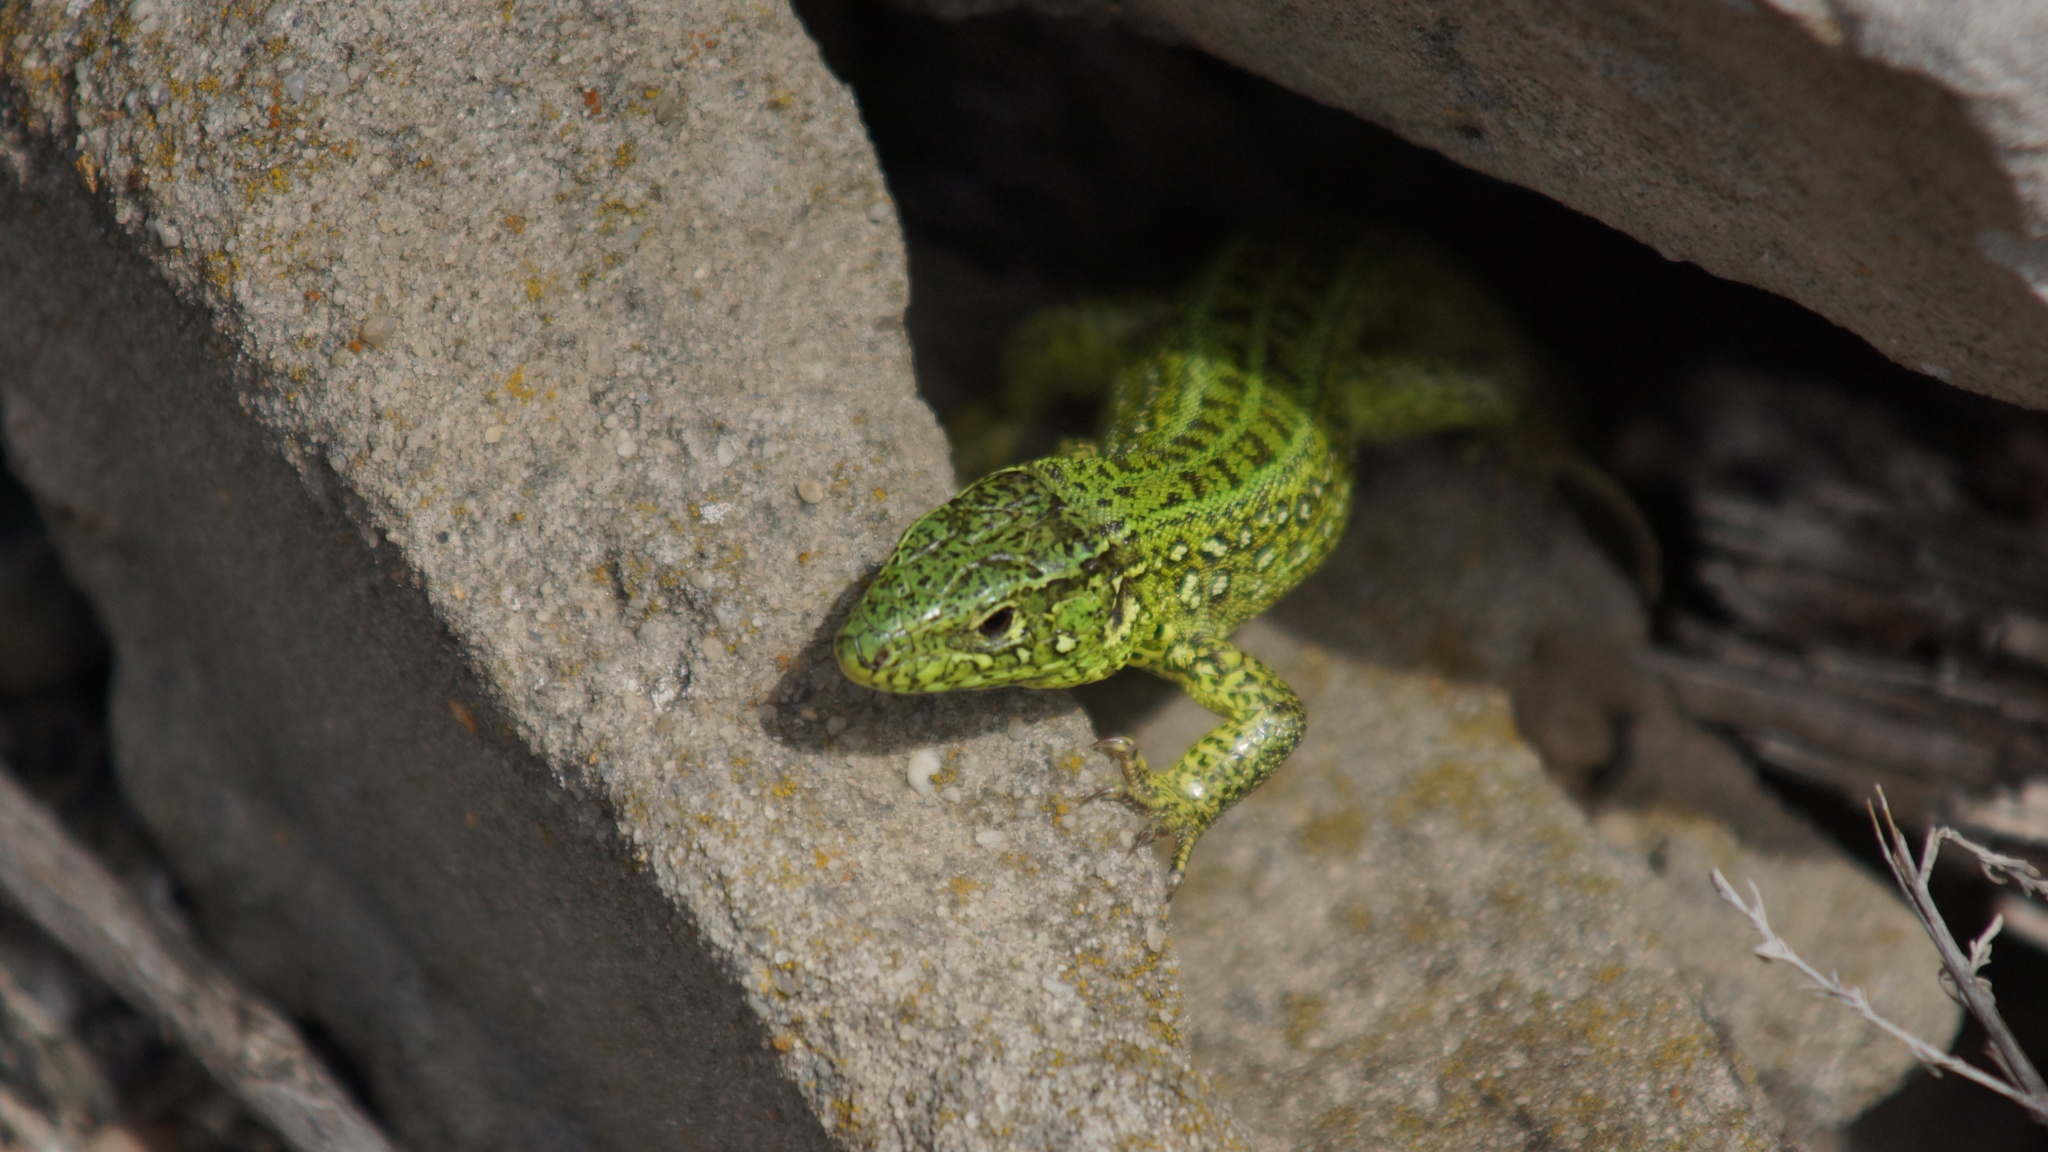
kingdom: Animalia
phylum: Chordata
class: Squamata
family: Lacertidae
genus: Lacerta
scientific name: Lacerta agilis
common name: Sand lizard
